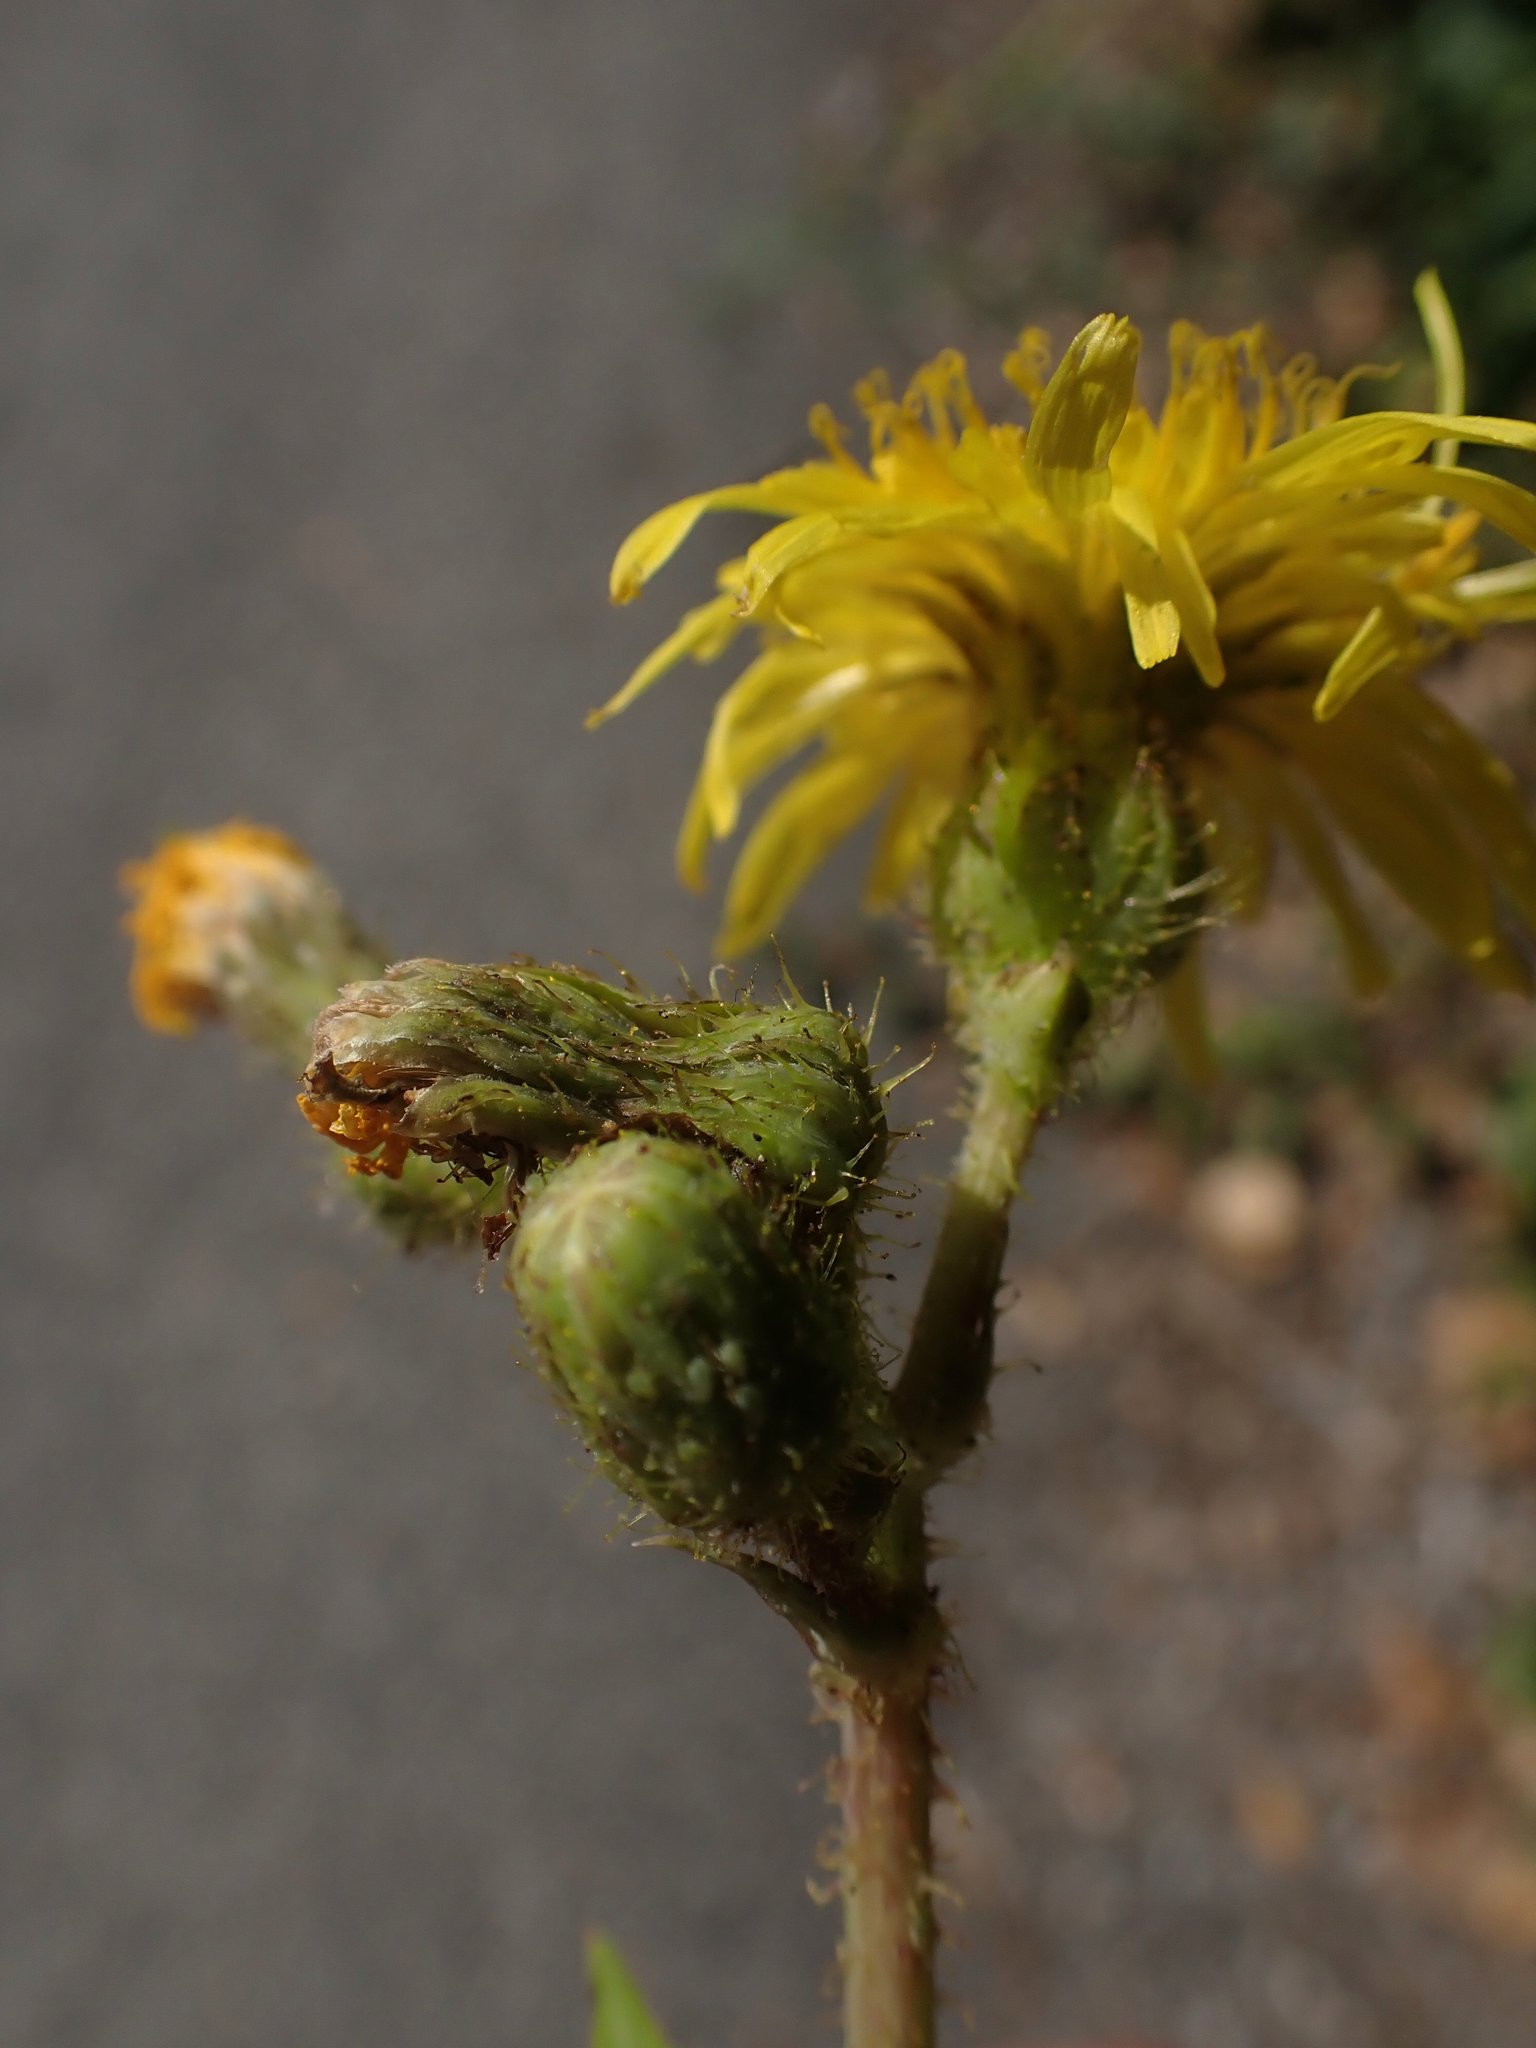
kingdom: Plantae
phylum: Tracheophyta
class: Magnoliopsida
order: Asterales
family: Asteraceae
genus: Sonchus
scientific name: Sonchus arvensis
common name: Perennial sow-thistle
